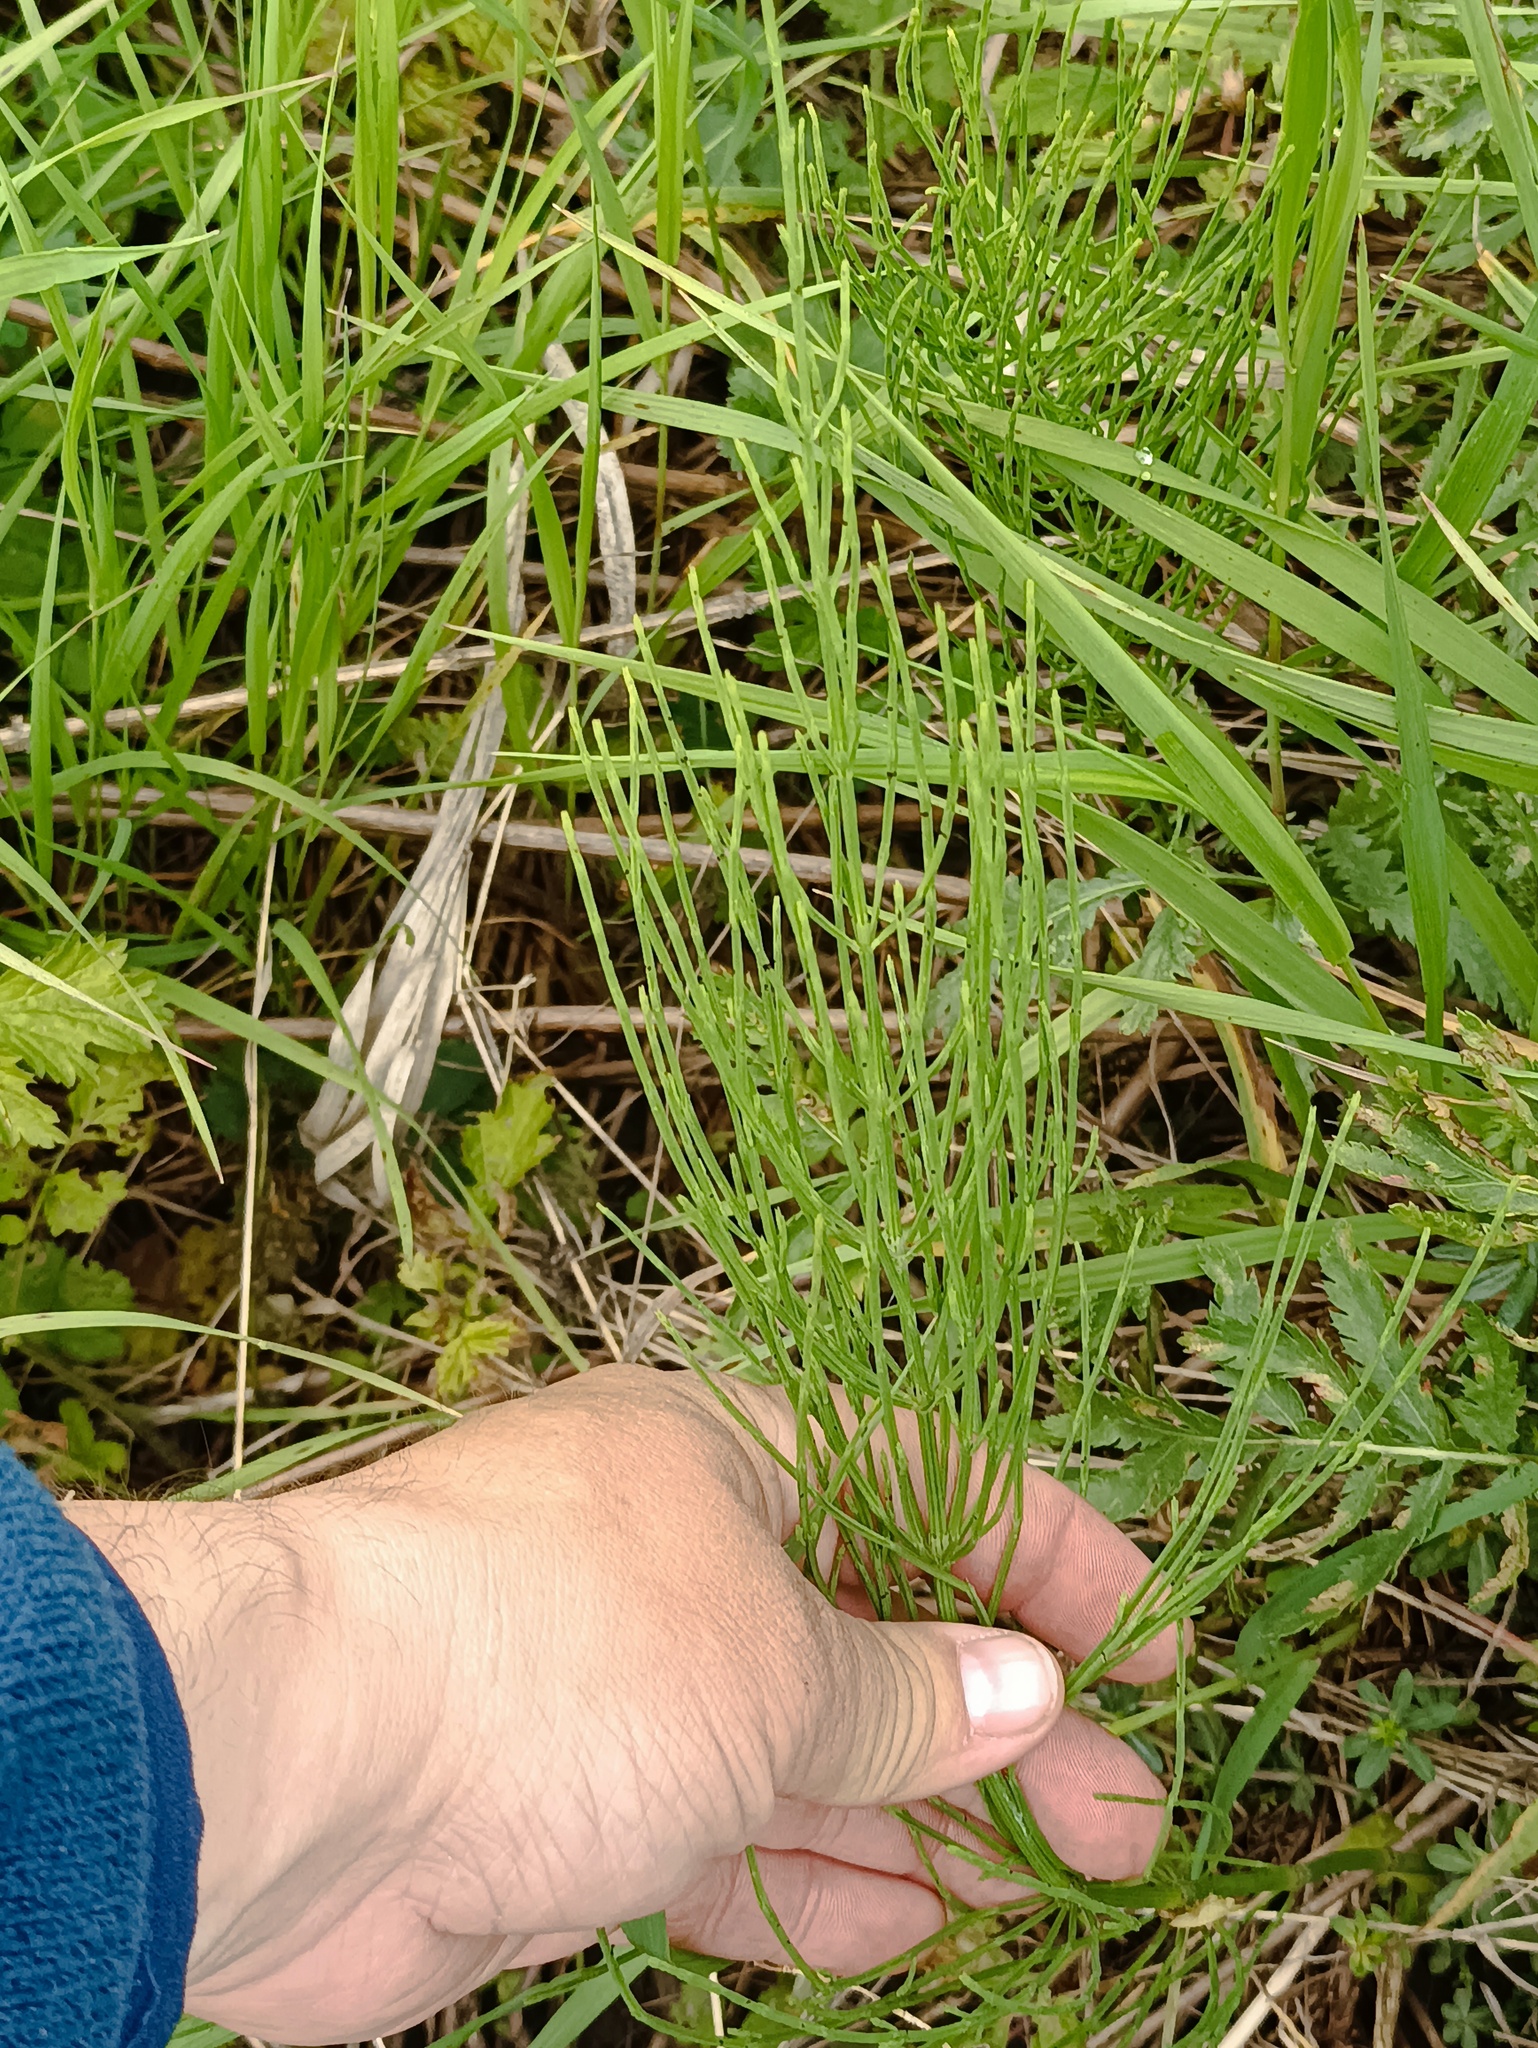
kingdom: Plantae
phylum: Tracheophyta
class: Polypodiopsida
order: Equisetales
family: Equisetaceae
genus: Equisetum
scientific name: Equisetum arvense
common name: Field horsetail
